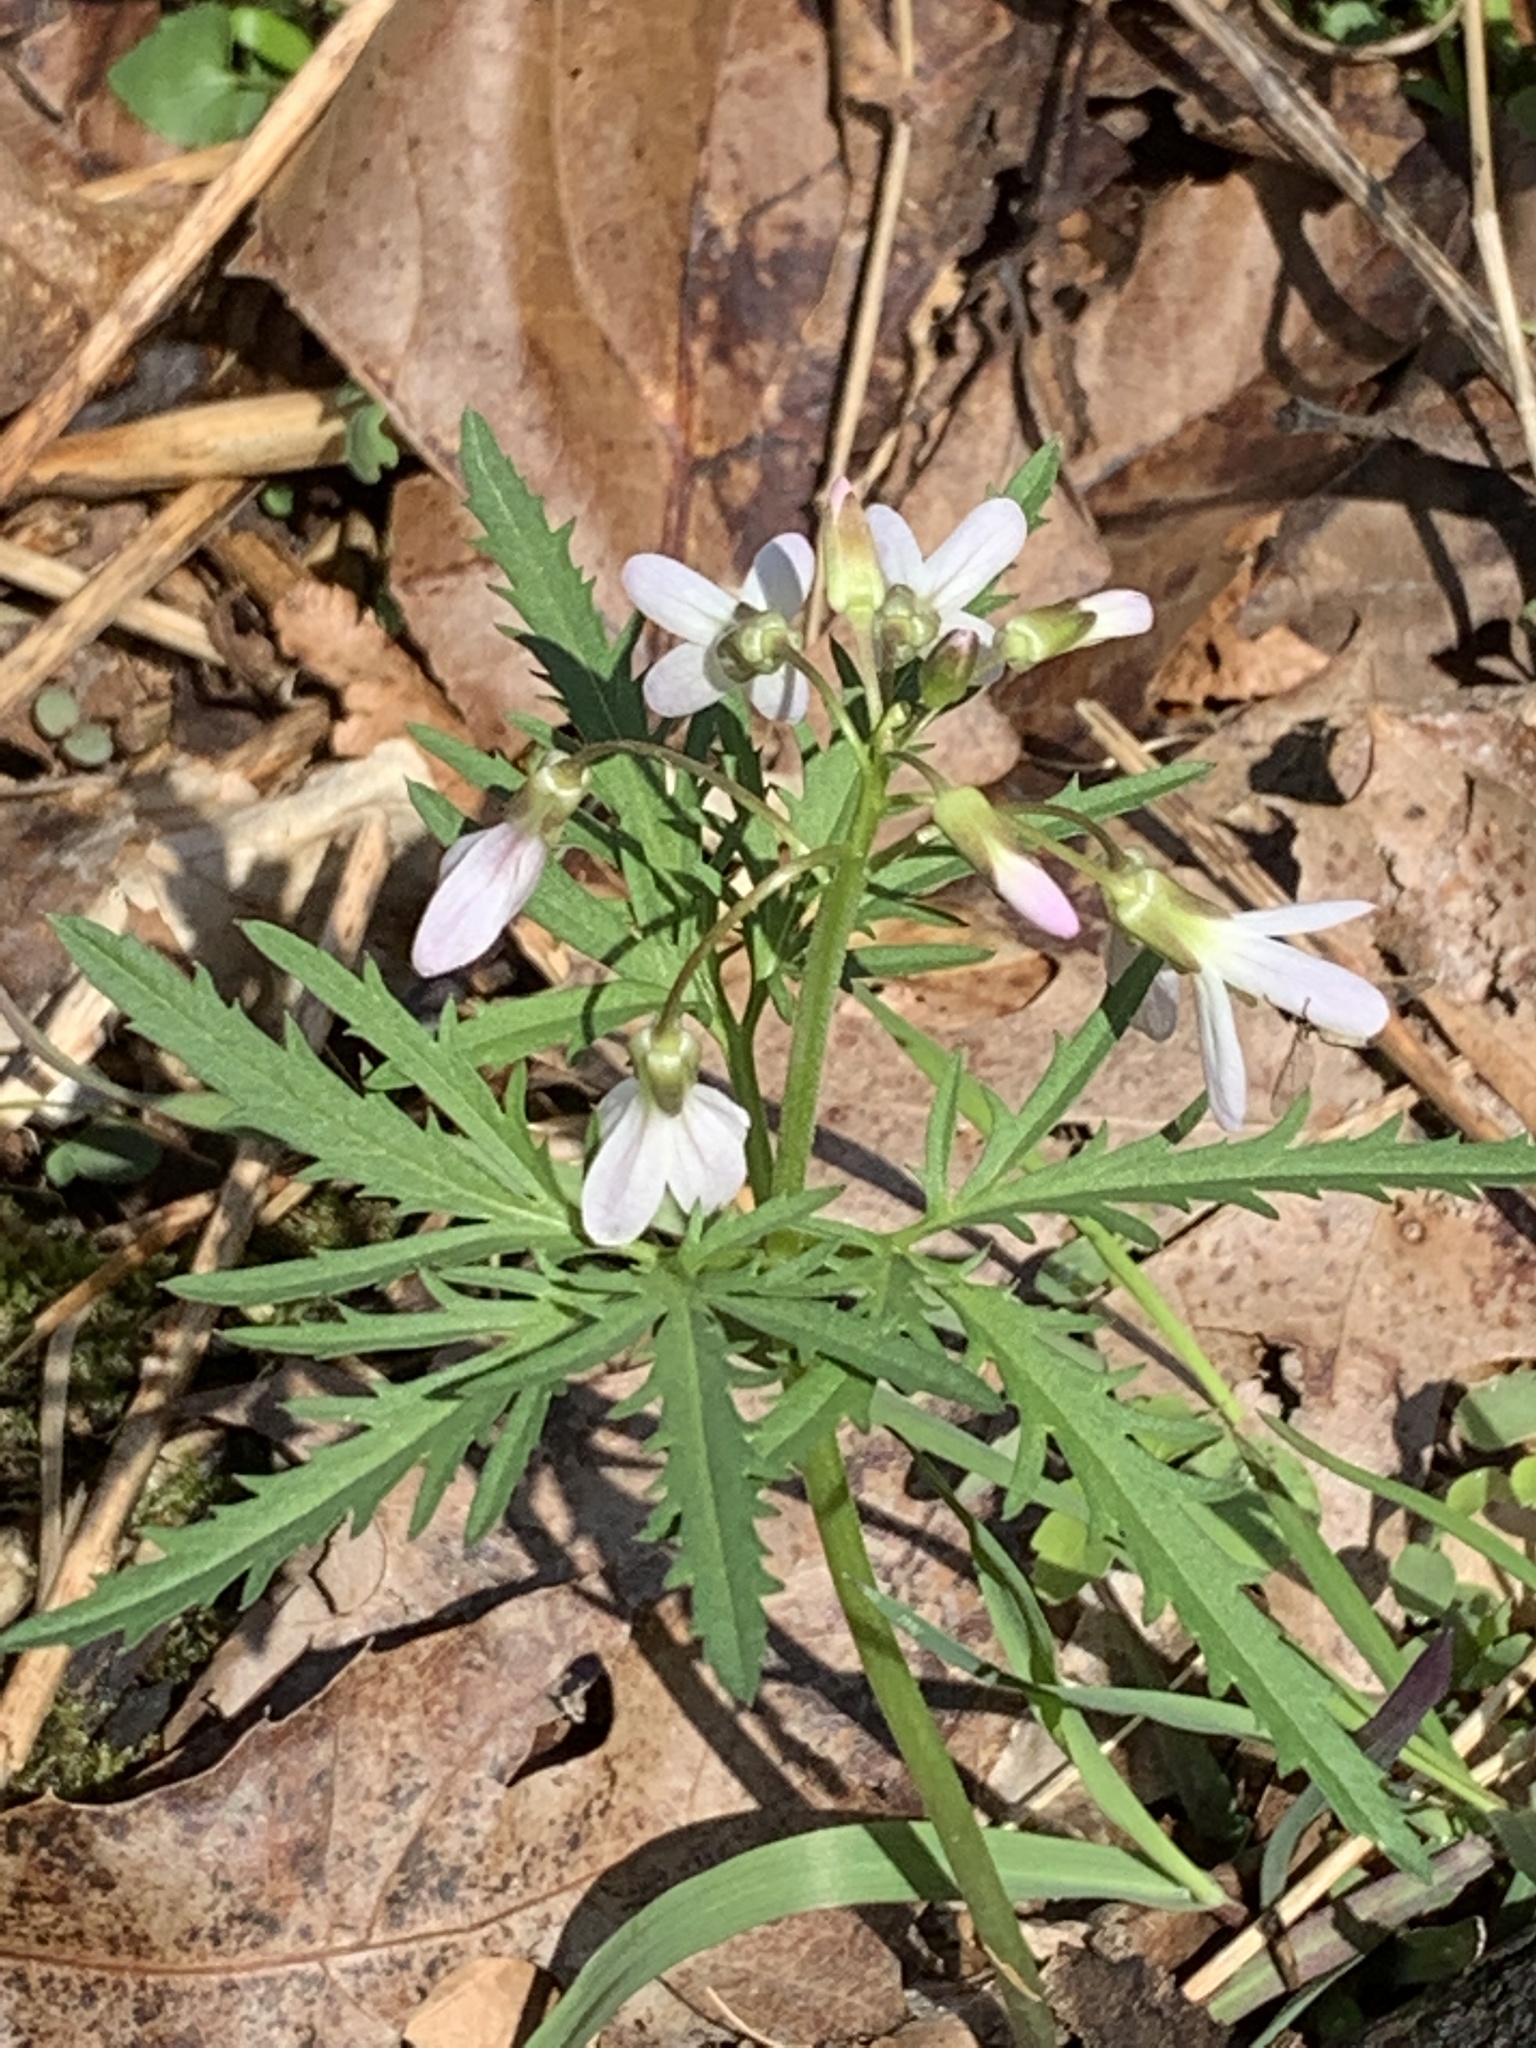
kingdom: Plantae
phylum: Tracheophyta
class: Magnoliopsida
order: Brassicales
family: Brassicaceae
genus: Cardamine
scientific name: Cardamine concatenata
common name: Cut-leaf toothcup
